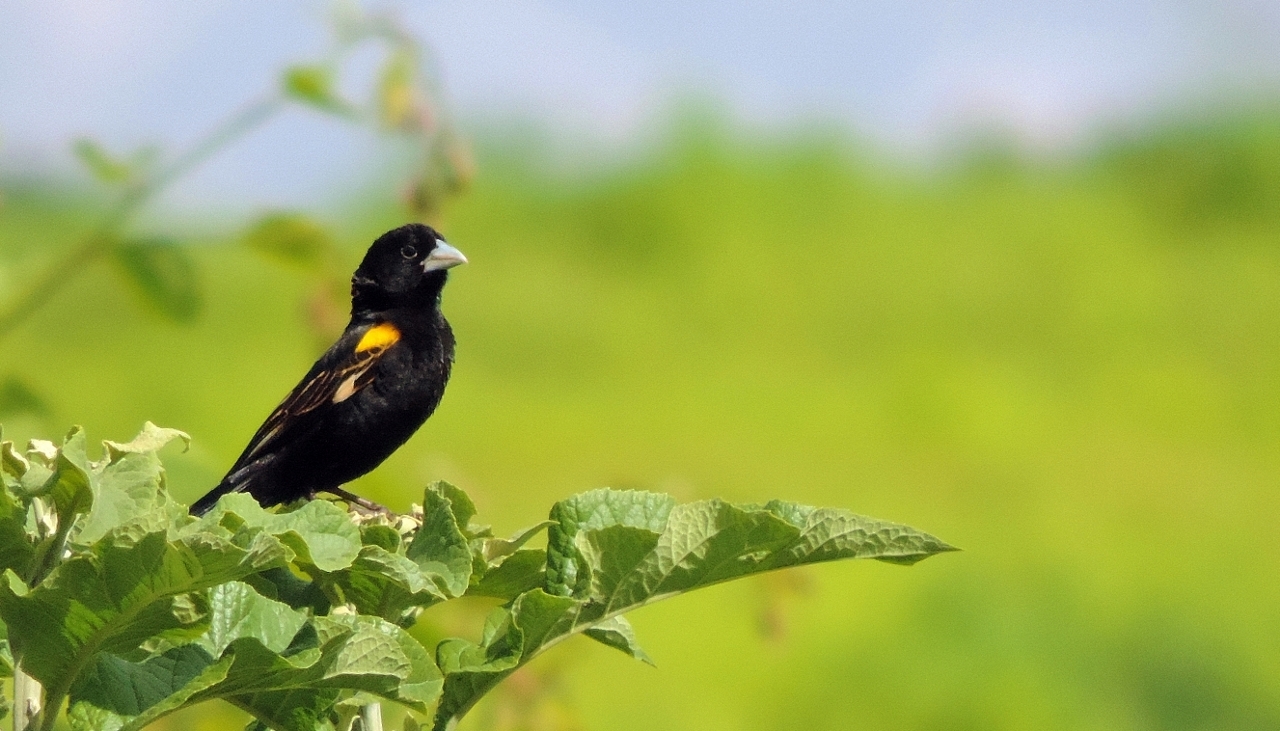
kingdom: Animalia
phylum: Chordata
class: Aves
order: Passeriformes
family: Ploceidae
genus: Euplectes
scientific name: Euplectes albonotatus
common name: White-winged widowbird
